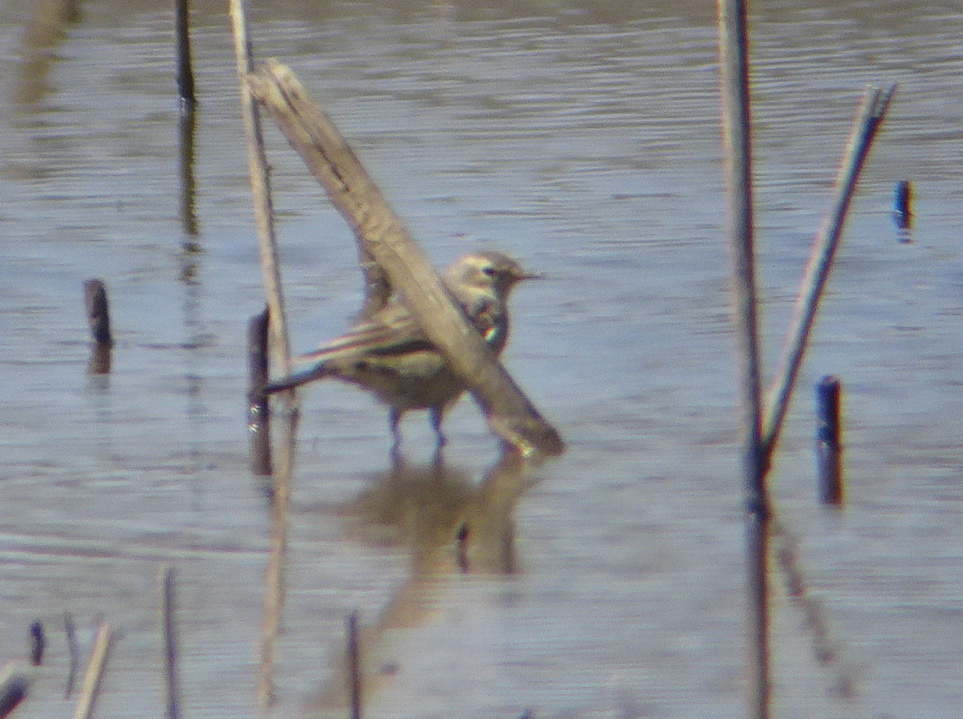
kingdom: Animalia
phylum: Chordata
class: Aves
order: Passeriformes
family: Motacillidae
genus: Anthus
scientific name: Anthus rubescens
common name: Buff-bellied pipit
